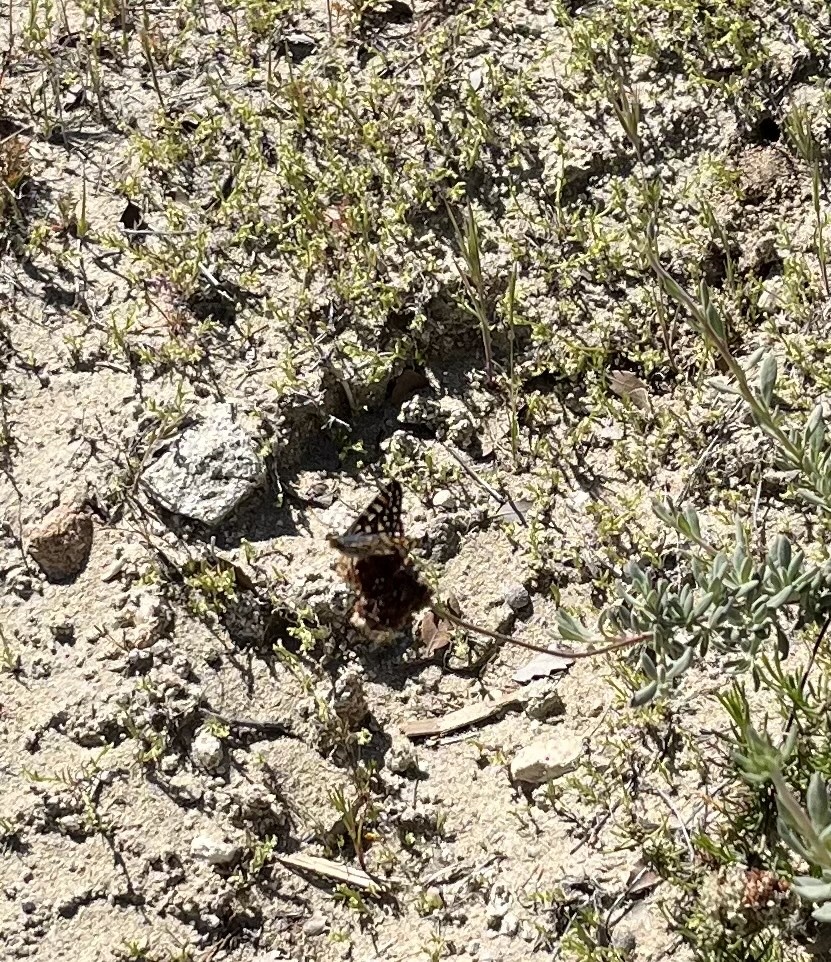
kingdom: Animalia
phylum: Arthropoda
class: Insecta
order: Lepidoptera
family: Nymphalidae
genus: Occidryas
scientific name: Occidryas chalcedona
